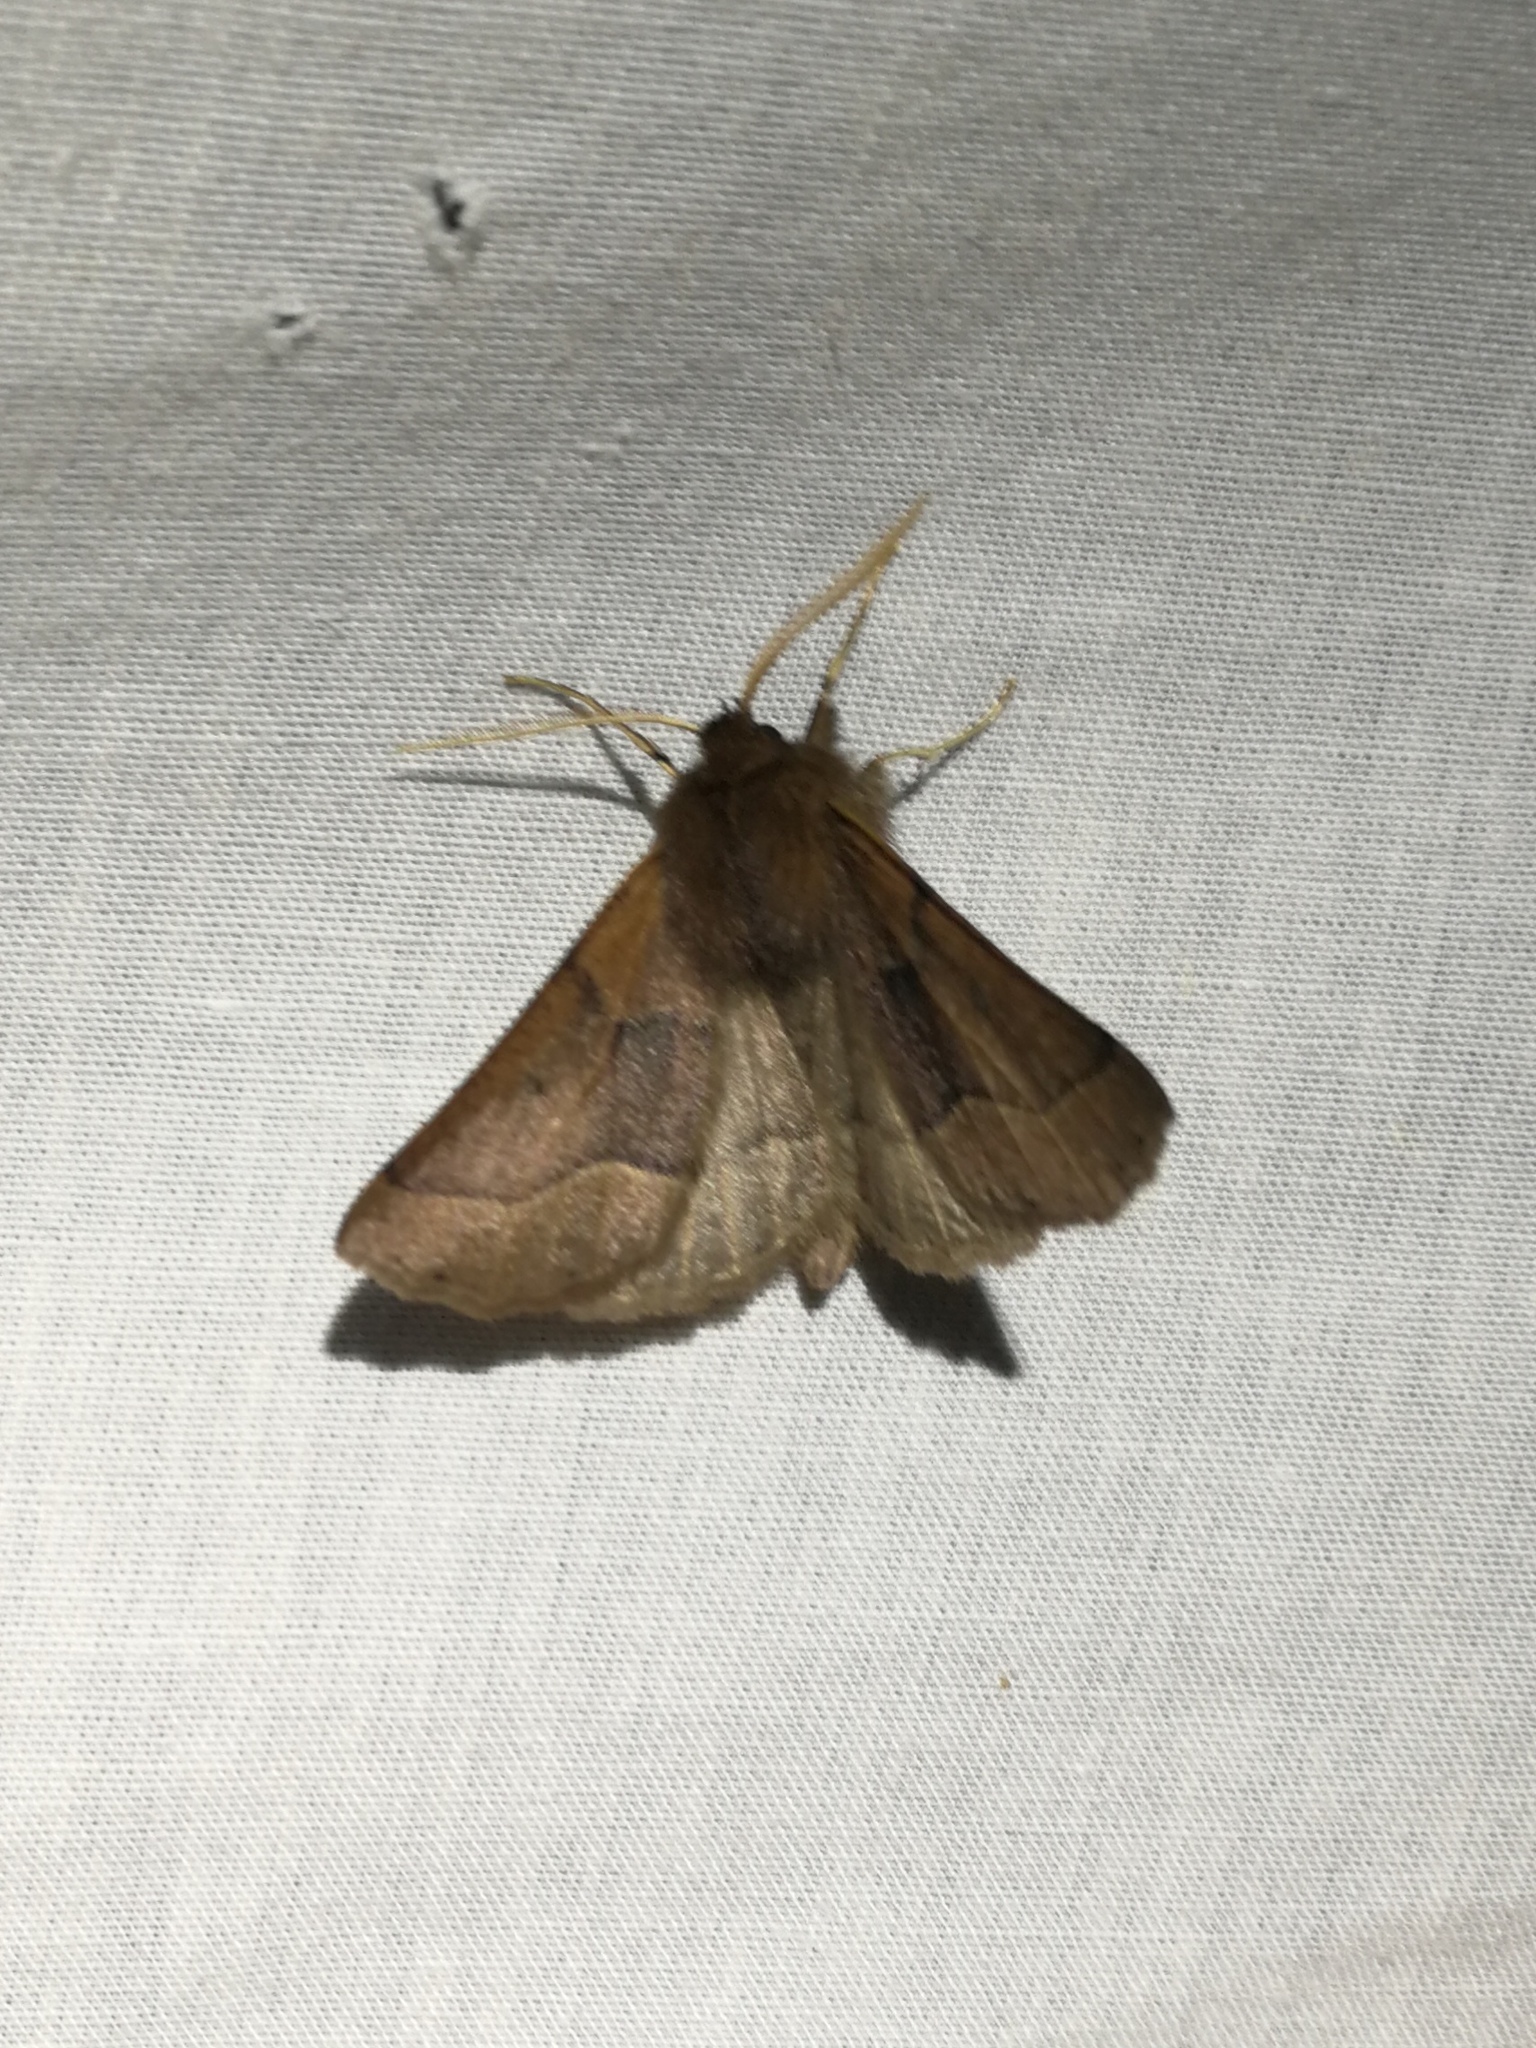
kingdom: Animalia
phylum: Arthropoda
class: Insecta
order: Lepidoptera
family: Geometridae
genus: Crocallis
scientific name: Crocallis tusciaria
